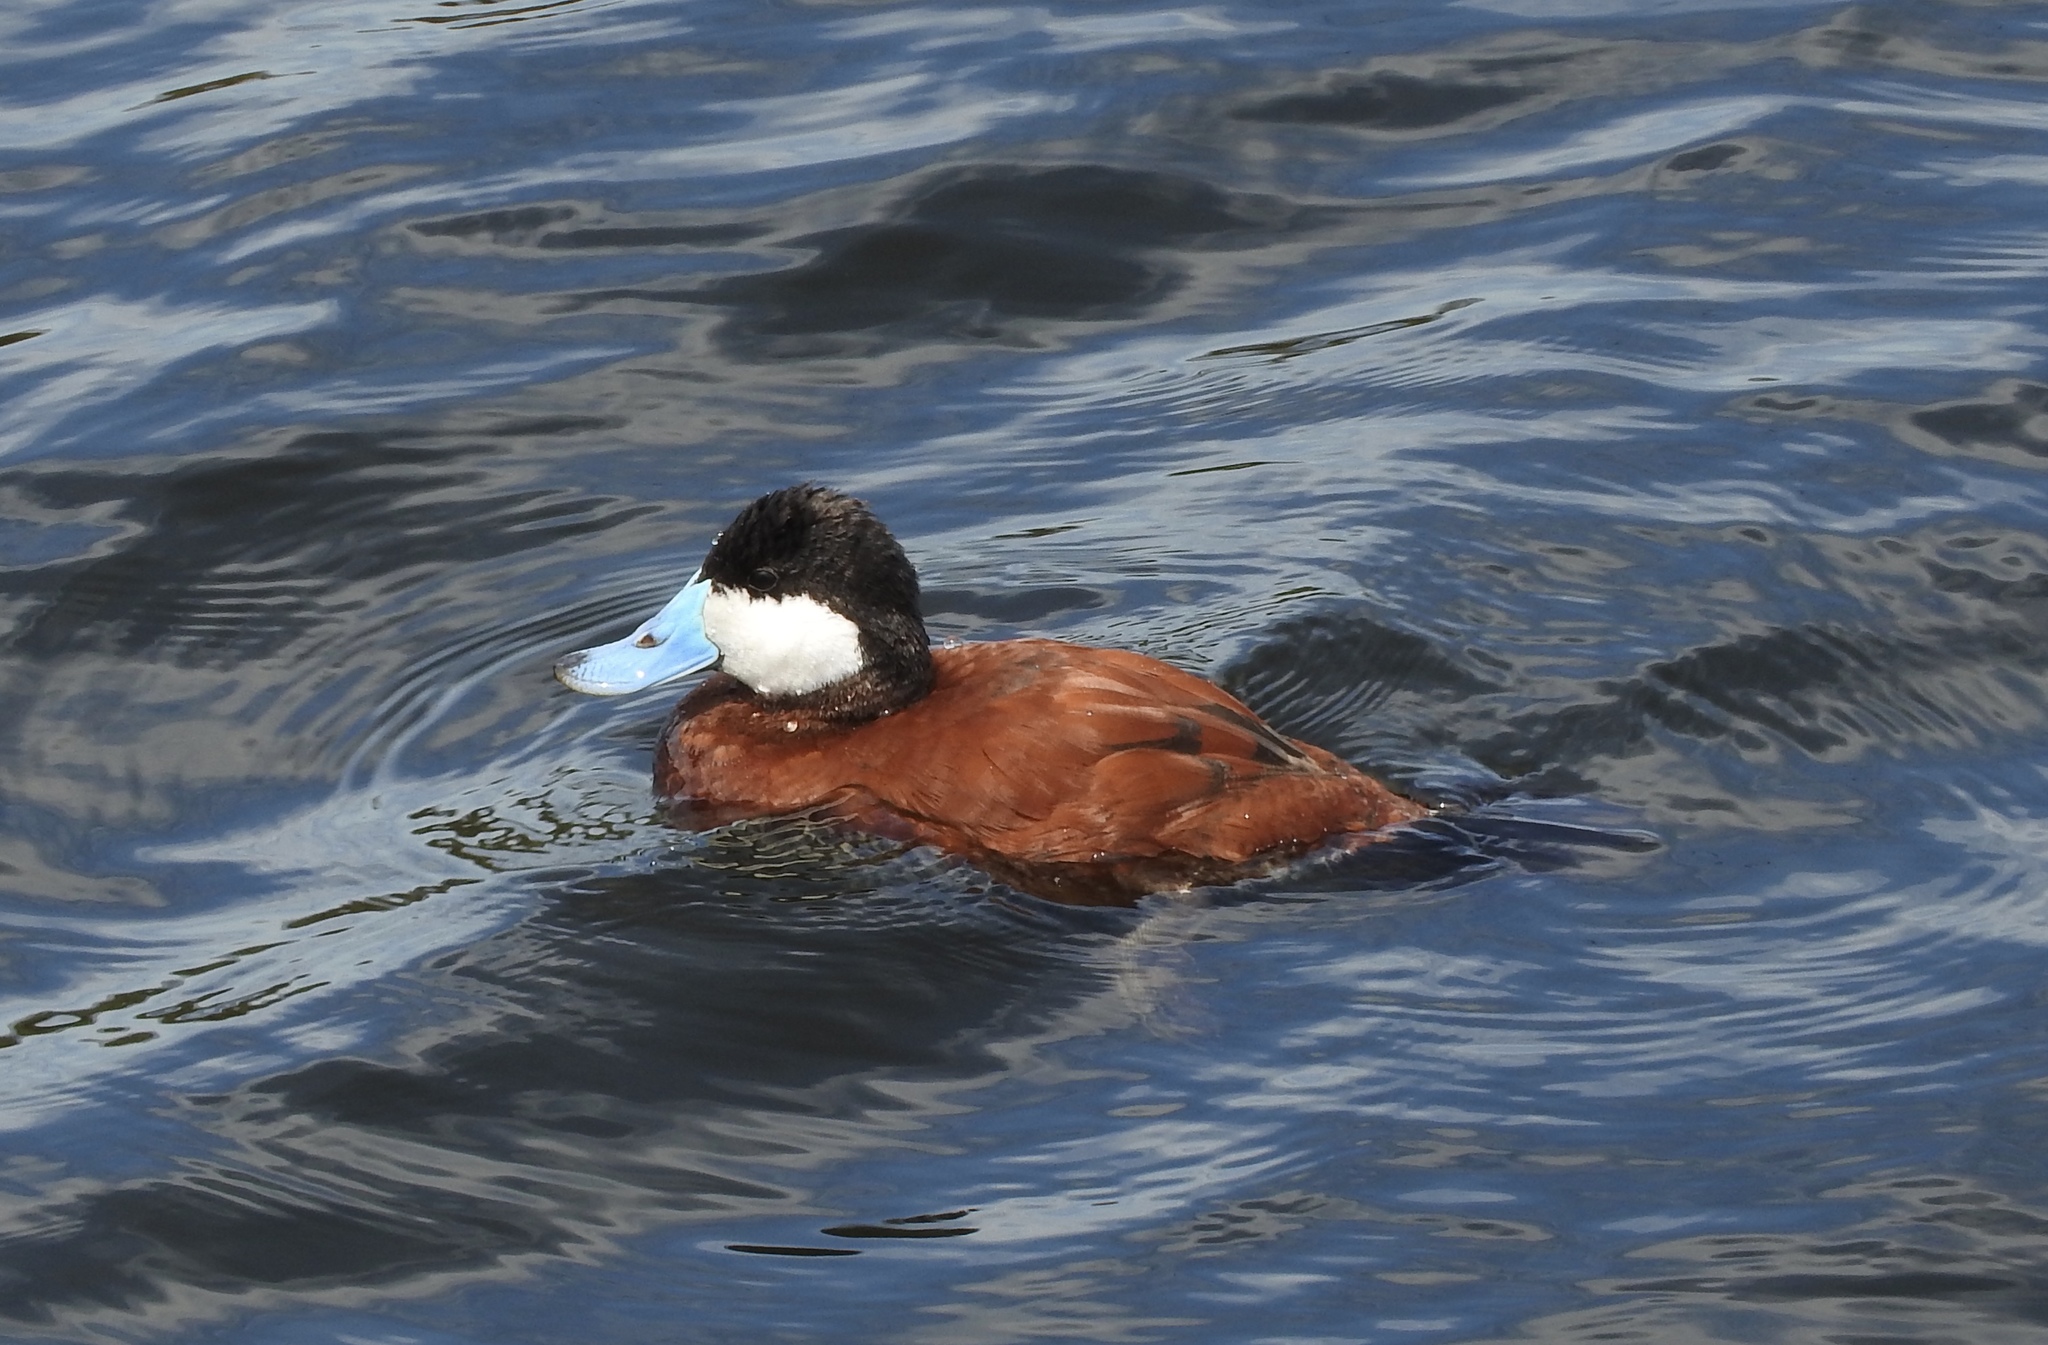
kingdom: Animalia
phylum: Chordata
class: Aves
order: Anseriformes
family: Anatidae
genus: Oxyura
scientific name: Oxyura jamaicensis
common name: Ruddy duck
